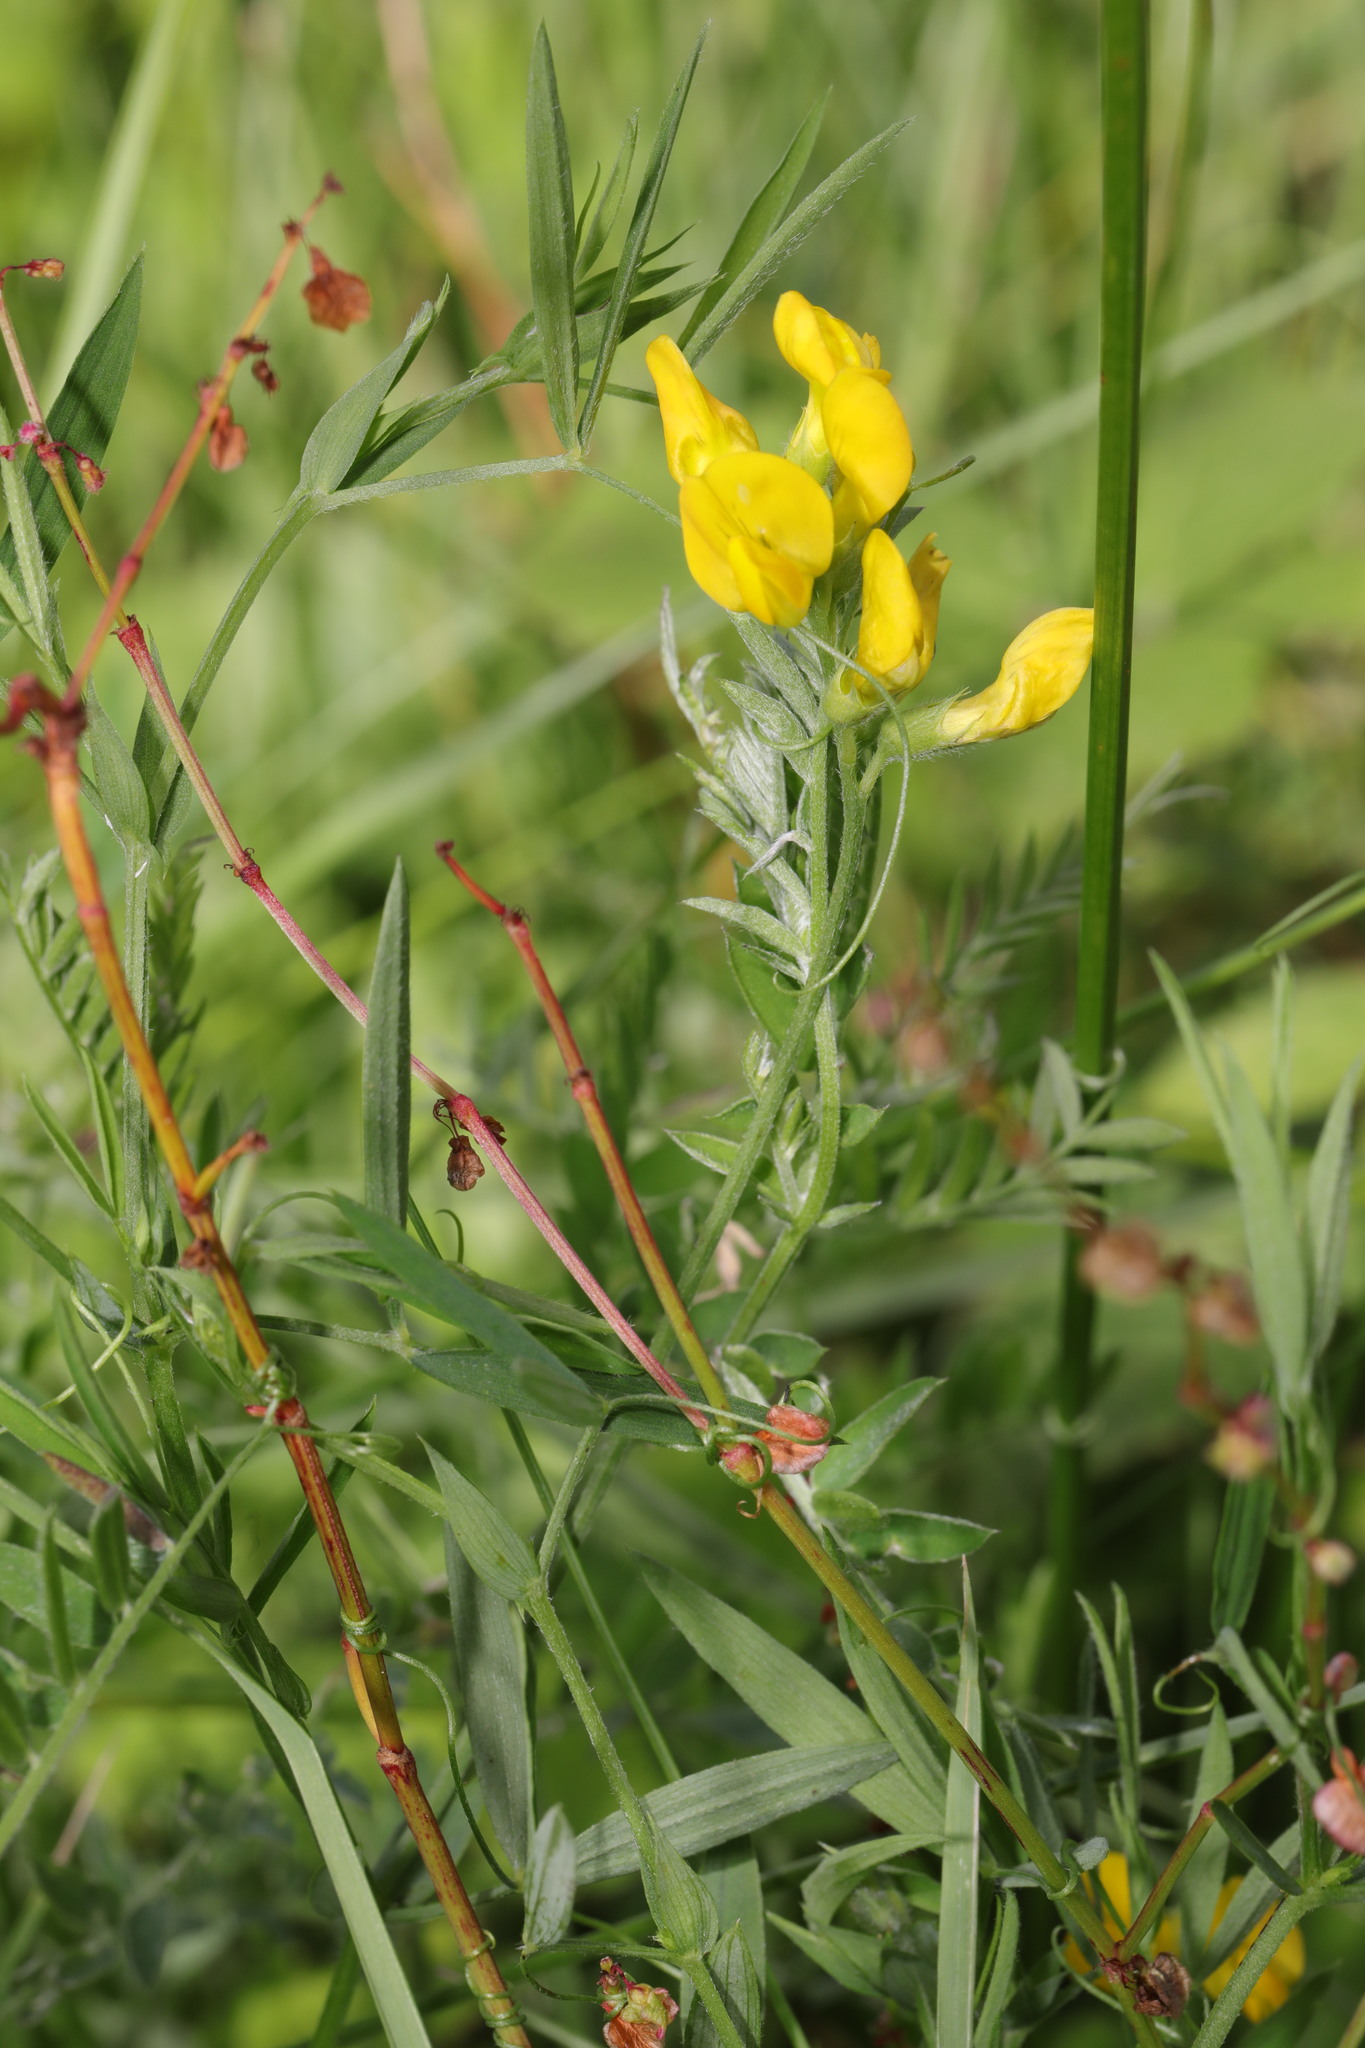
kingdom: Plantae
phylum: Tracheophyta
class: Magnoliopsida
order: Fabales
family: Fabaceae
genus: Lathyrus
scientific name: Lathyrus pratensis
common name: Meadow vetchling
